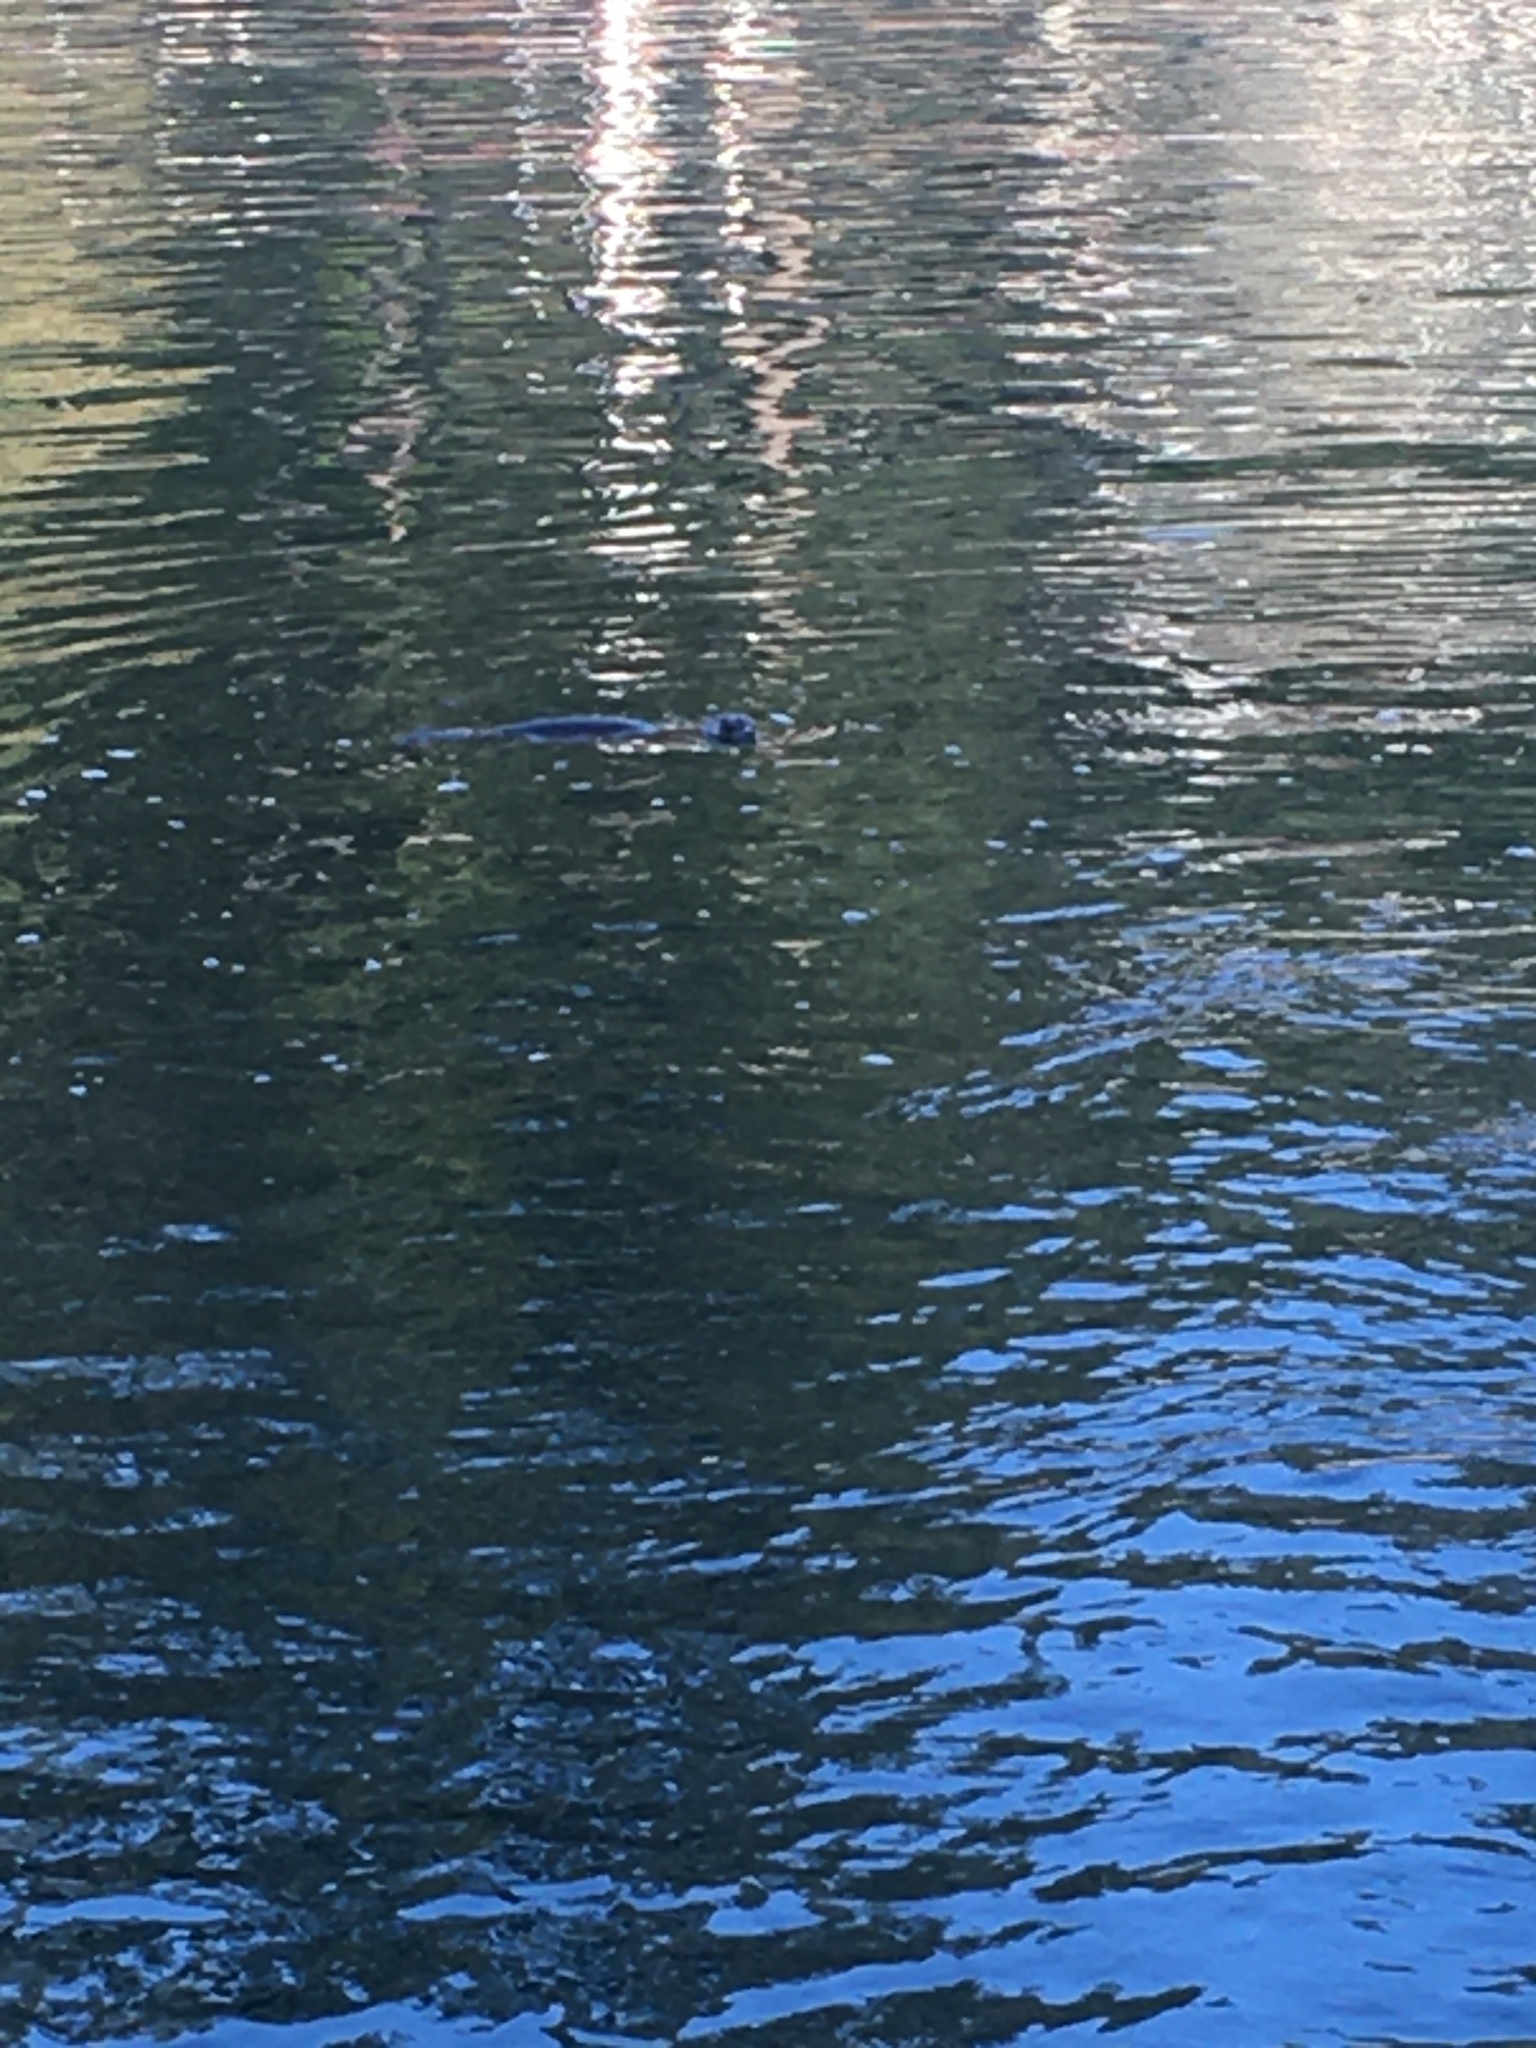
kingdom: Animalia
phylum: Chordata
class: Mammalia
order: Carnivora
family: Mustelidae
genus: Lontra
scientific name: Lontra canadensis
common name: North american river otter
